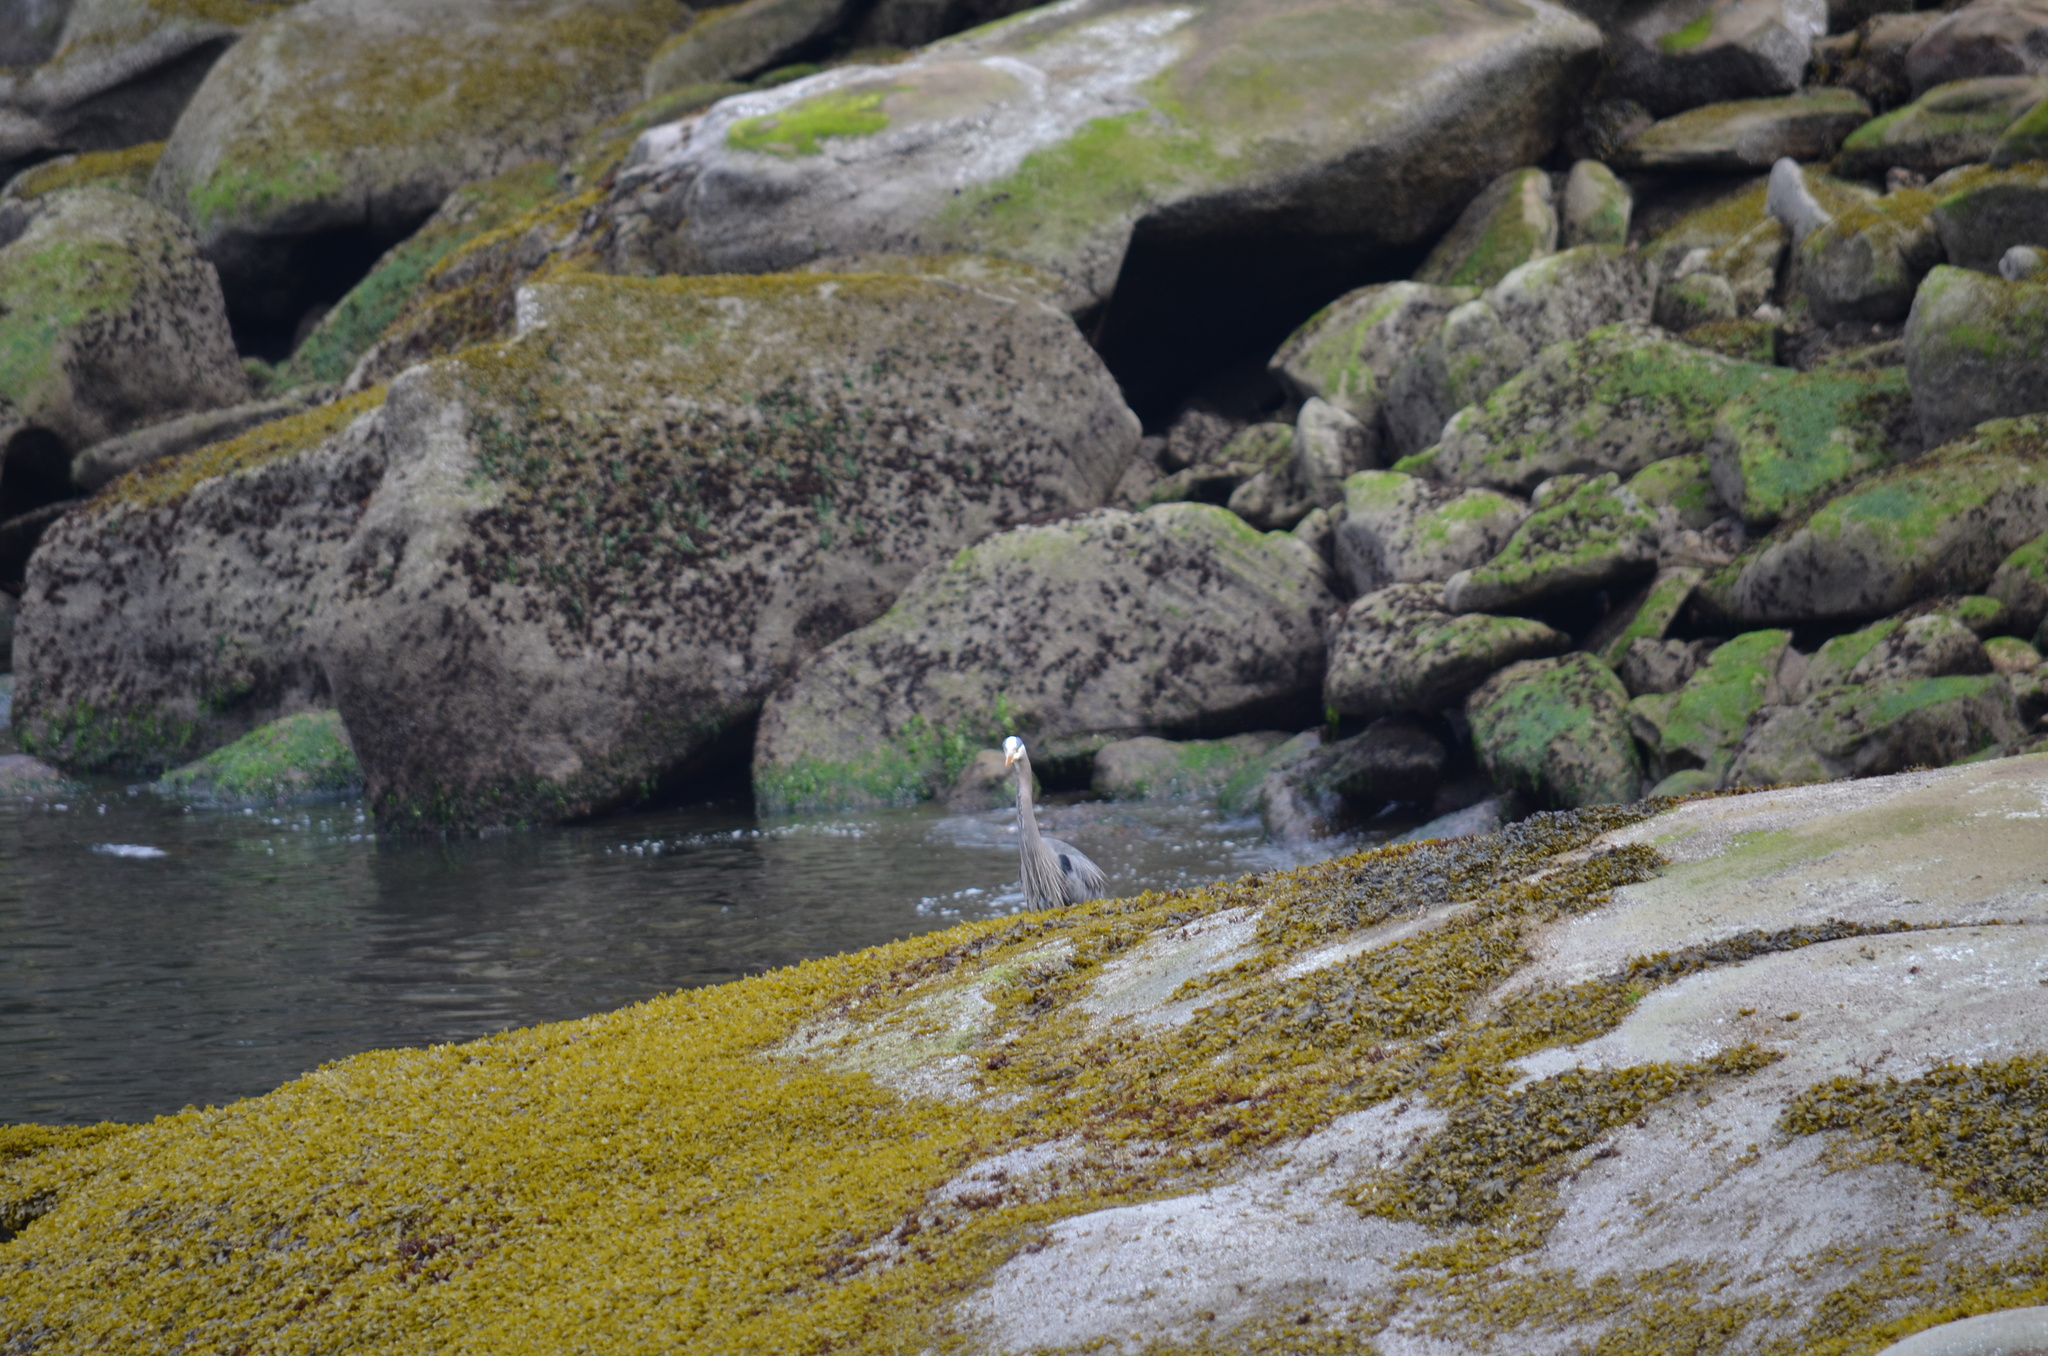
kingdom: Animalia
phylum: Chordata
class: Aves
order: Pelecaniformes
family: Ardeidae
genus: Ardea
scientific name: Ardea herodias
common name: Great blue heron
